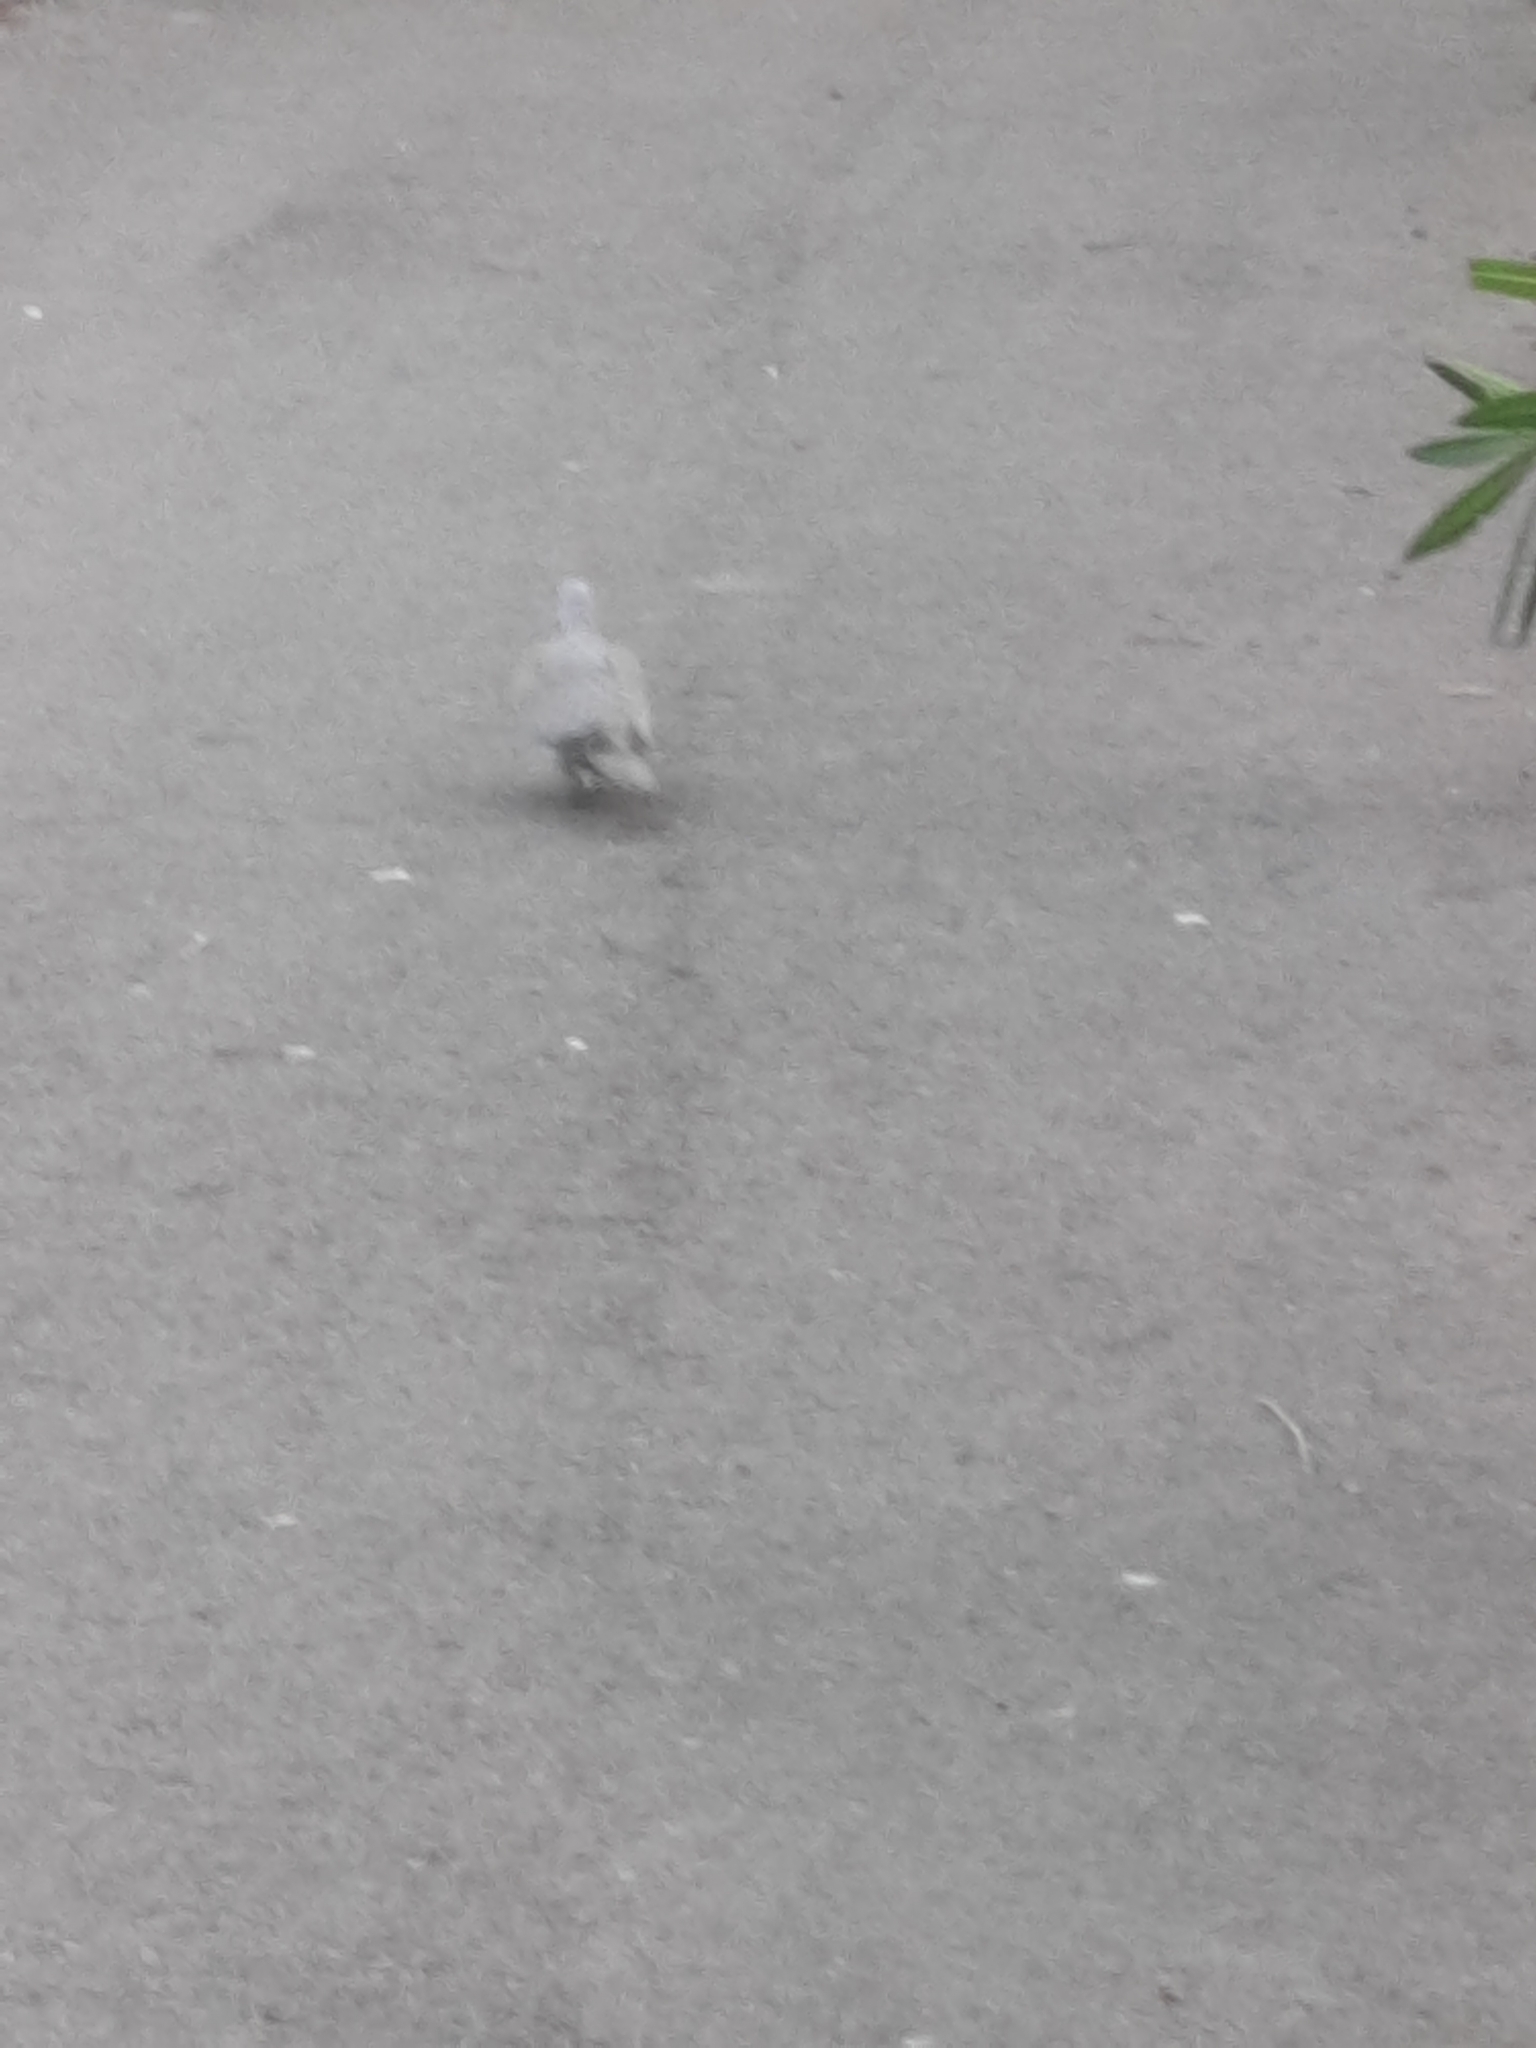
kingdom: Animalia
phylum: Chordata
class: Aves
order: Columbiformes
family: Columbidae
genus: Streptopelia
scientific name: Streptopelia decaocto
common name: Eurasian collared dove
